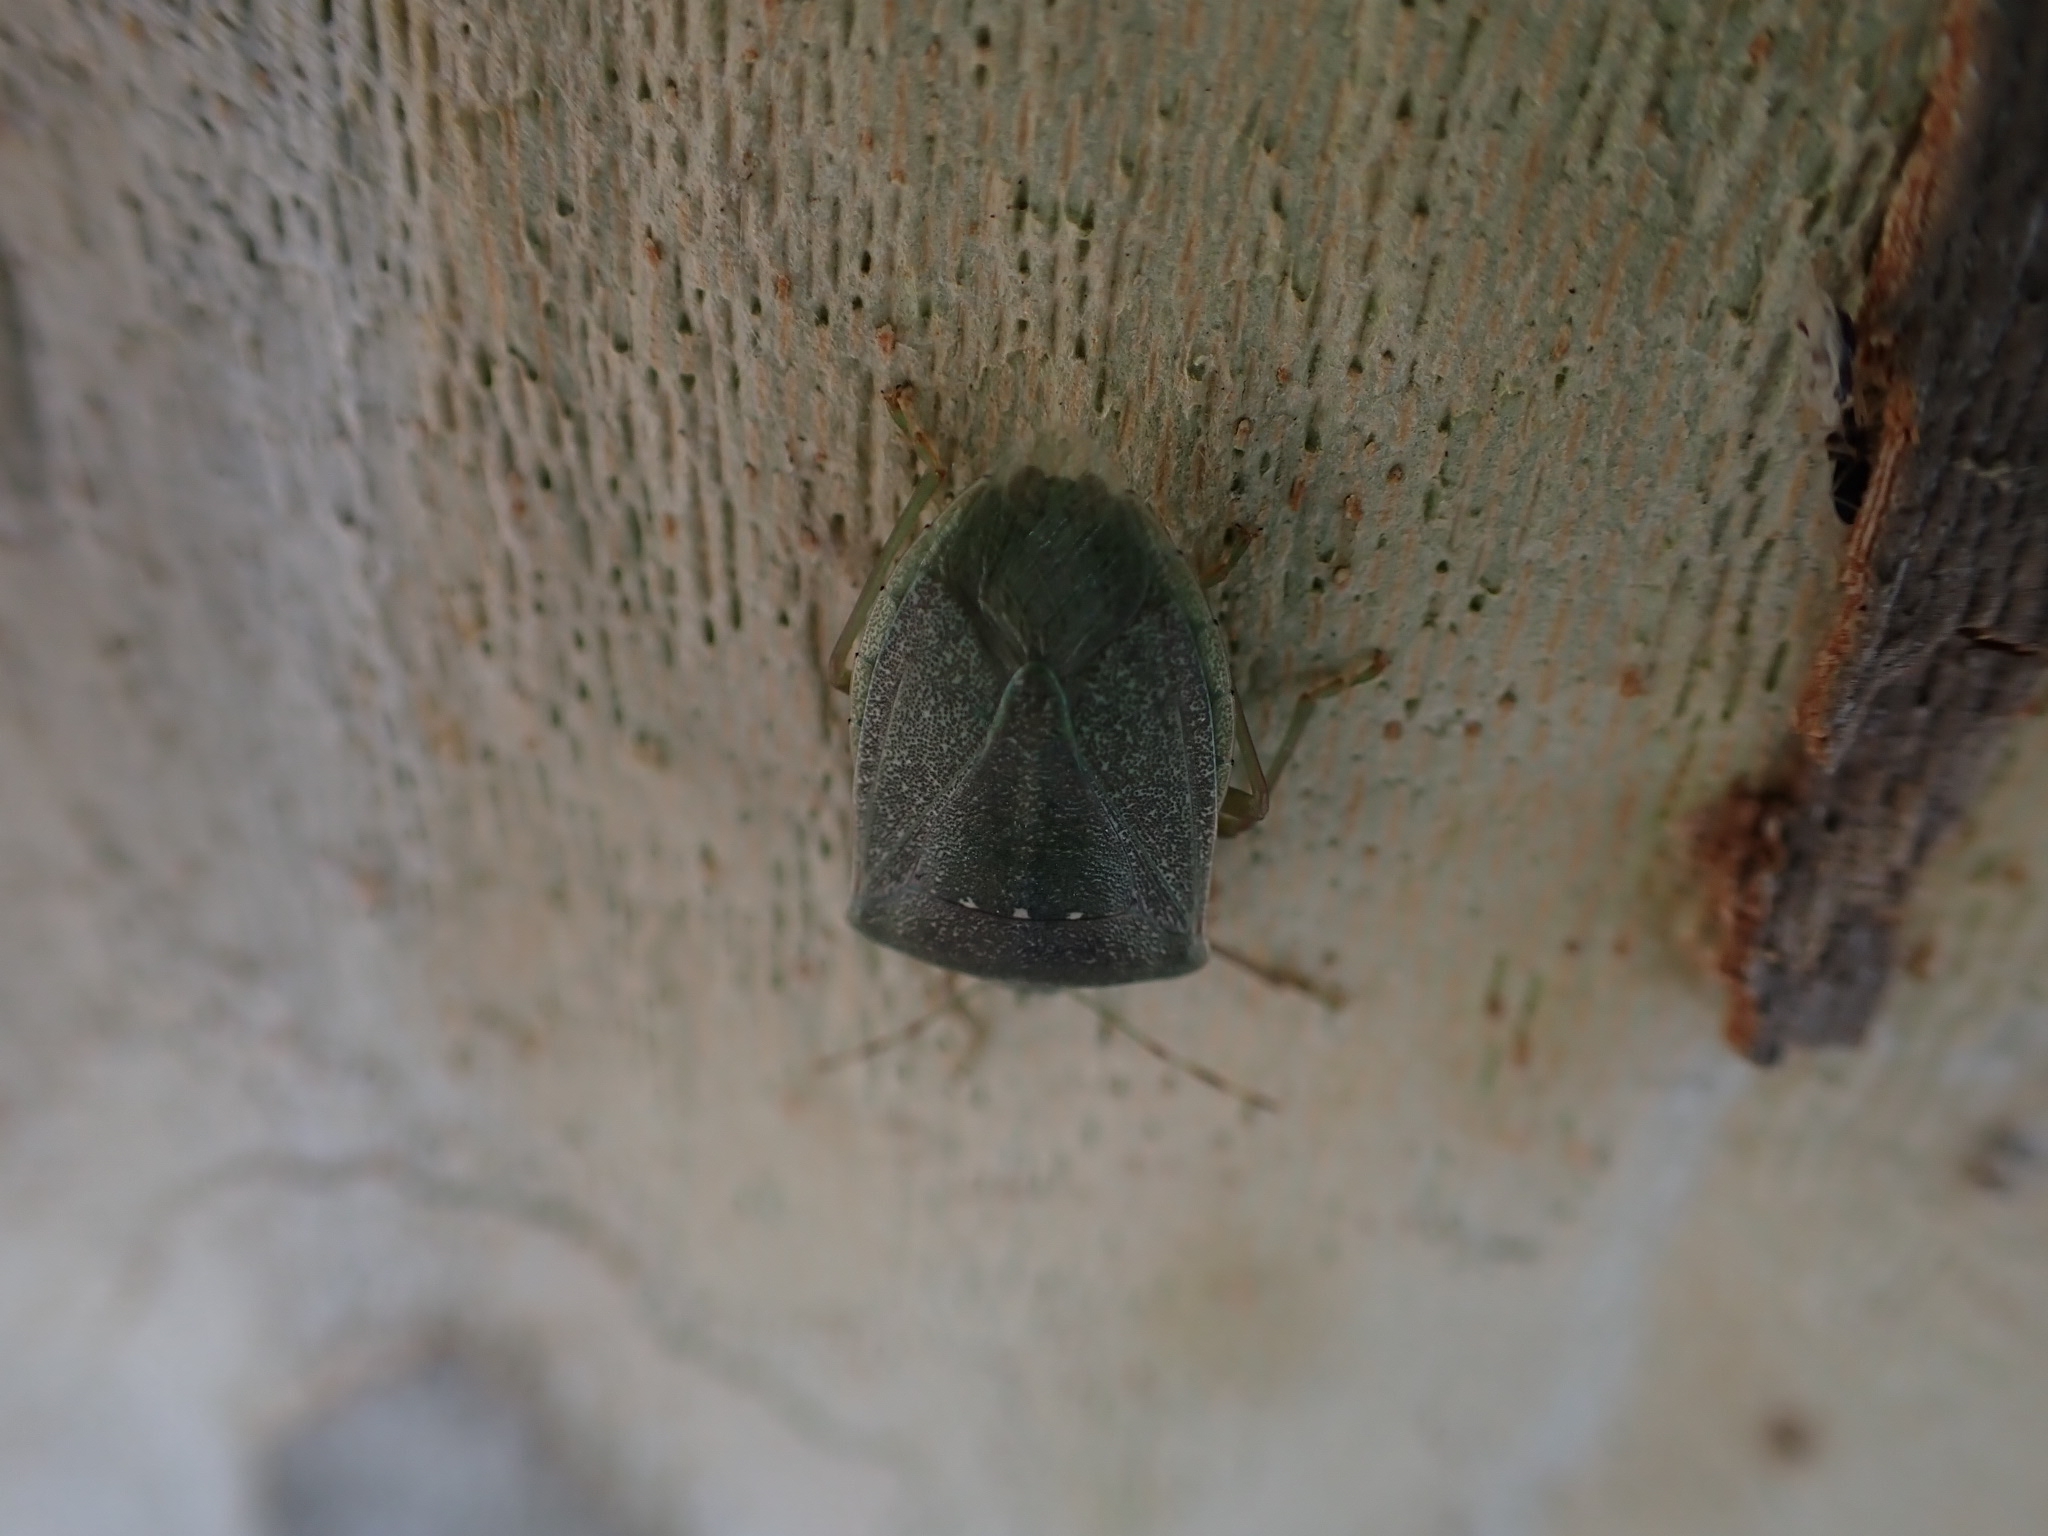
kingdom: Animalia
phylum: Arthropoda
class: Insecta
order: Hemiptera
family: Pentatomidae
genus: Nezara
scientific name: Nezara viridula
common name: Southern green stink bug
